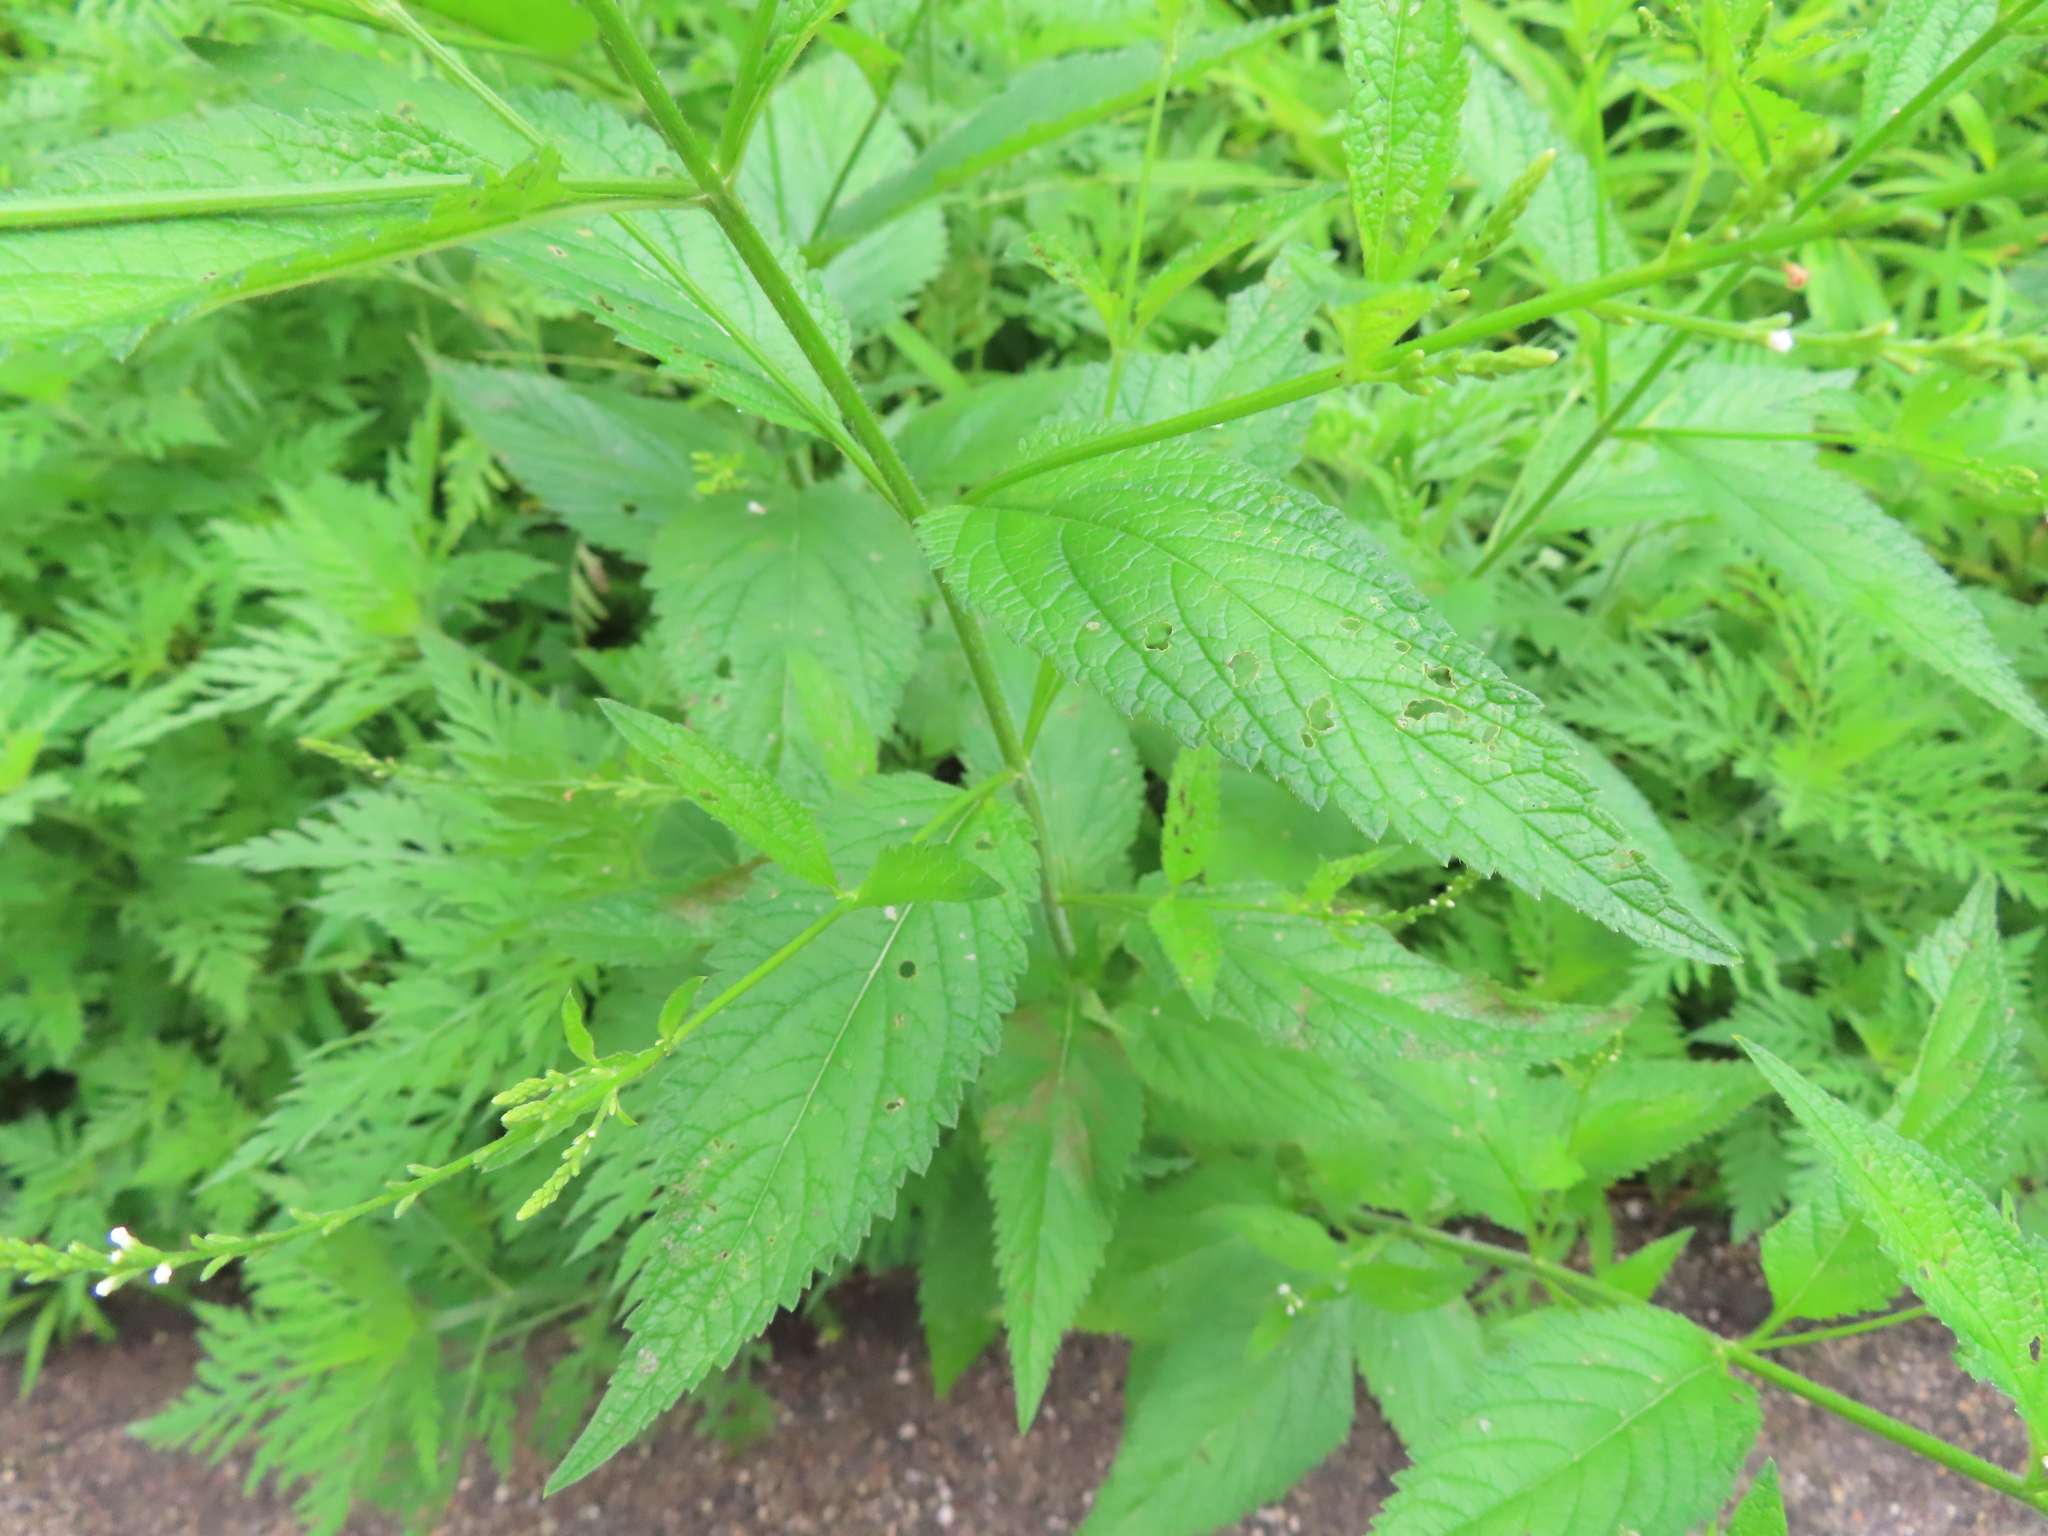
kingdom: Plantae
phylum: Tracheophyta
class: Magnoliopsida
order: Lamiales
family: Verbenaceae
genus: Verbena
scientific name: Verbena urticifolia
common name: Nettle-leaved vervain
